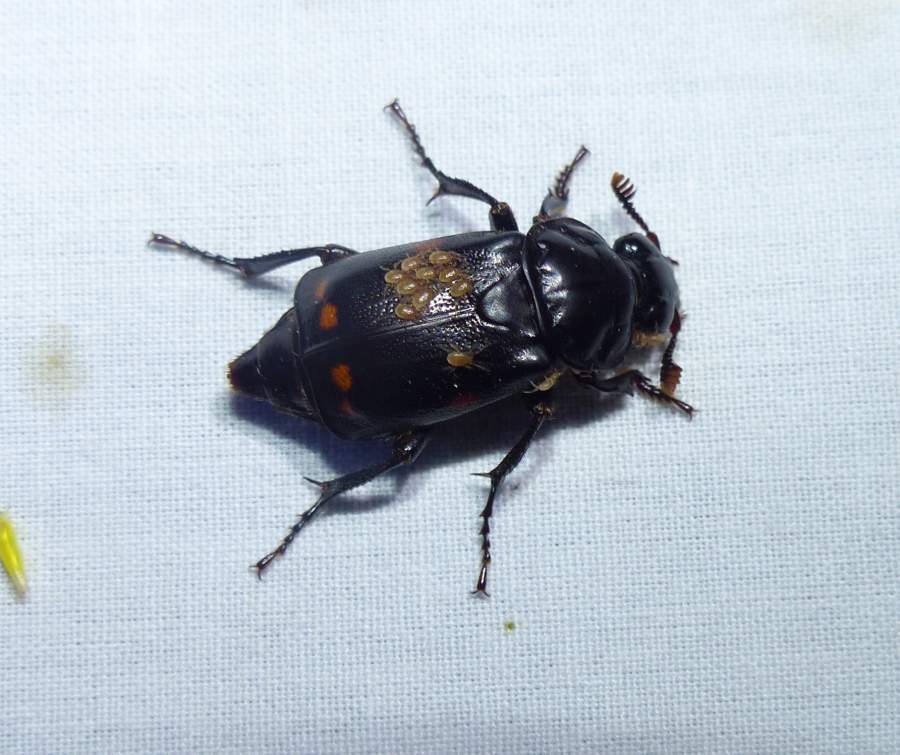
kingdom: Animalia
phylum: Arthropoda
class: Insecta
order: Coleoptera
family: Staphylinidae
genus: Nicrophorus
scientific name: Nicrophorus pustulatus
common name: Pustulated carrion beetle
